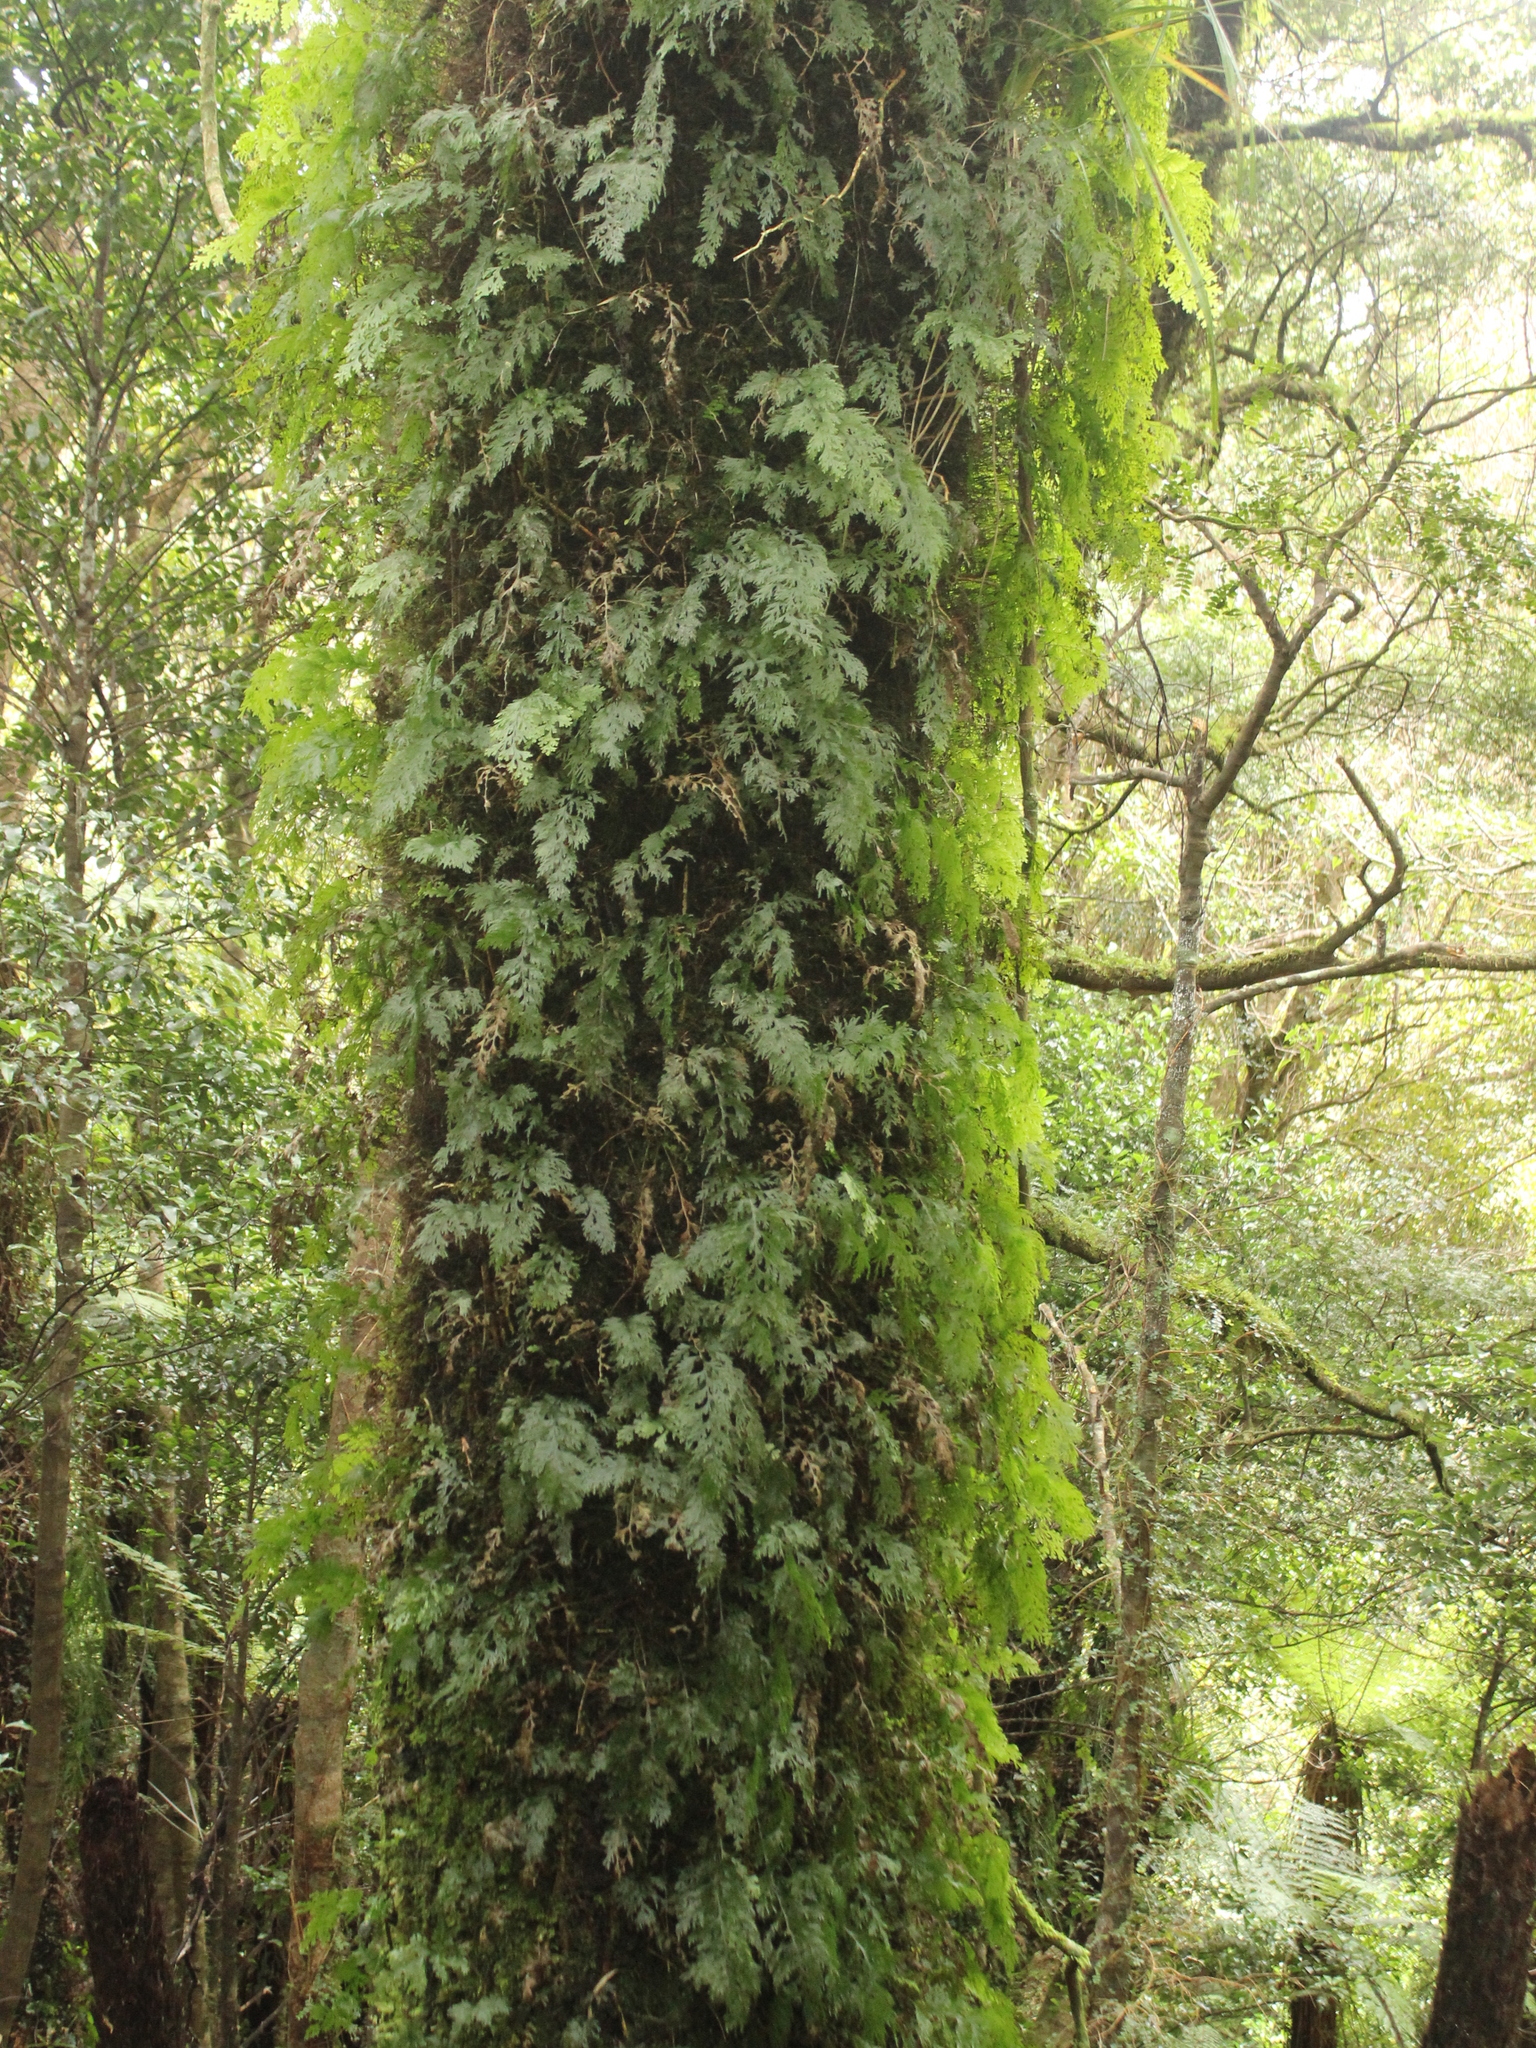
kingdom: Plantae
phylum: Tracheophyta
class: Polypodiopsida
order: Hymenophyllales
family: Hymenophyllaceae
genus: Hymenophyllum
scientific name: Hymenophyllum dilatatum
